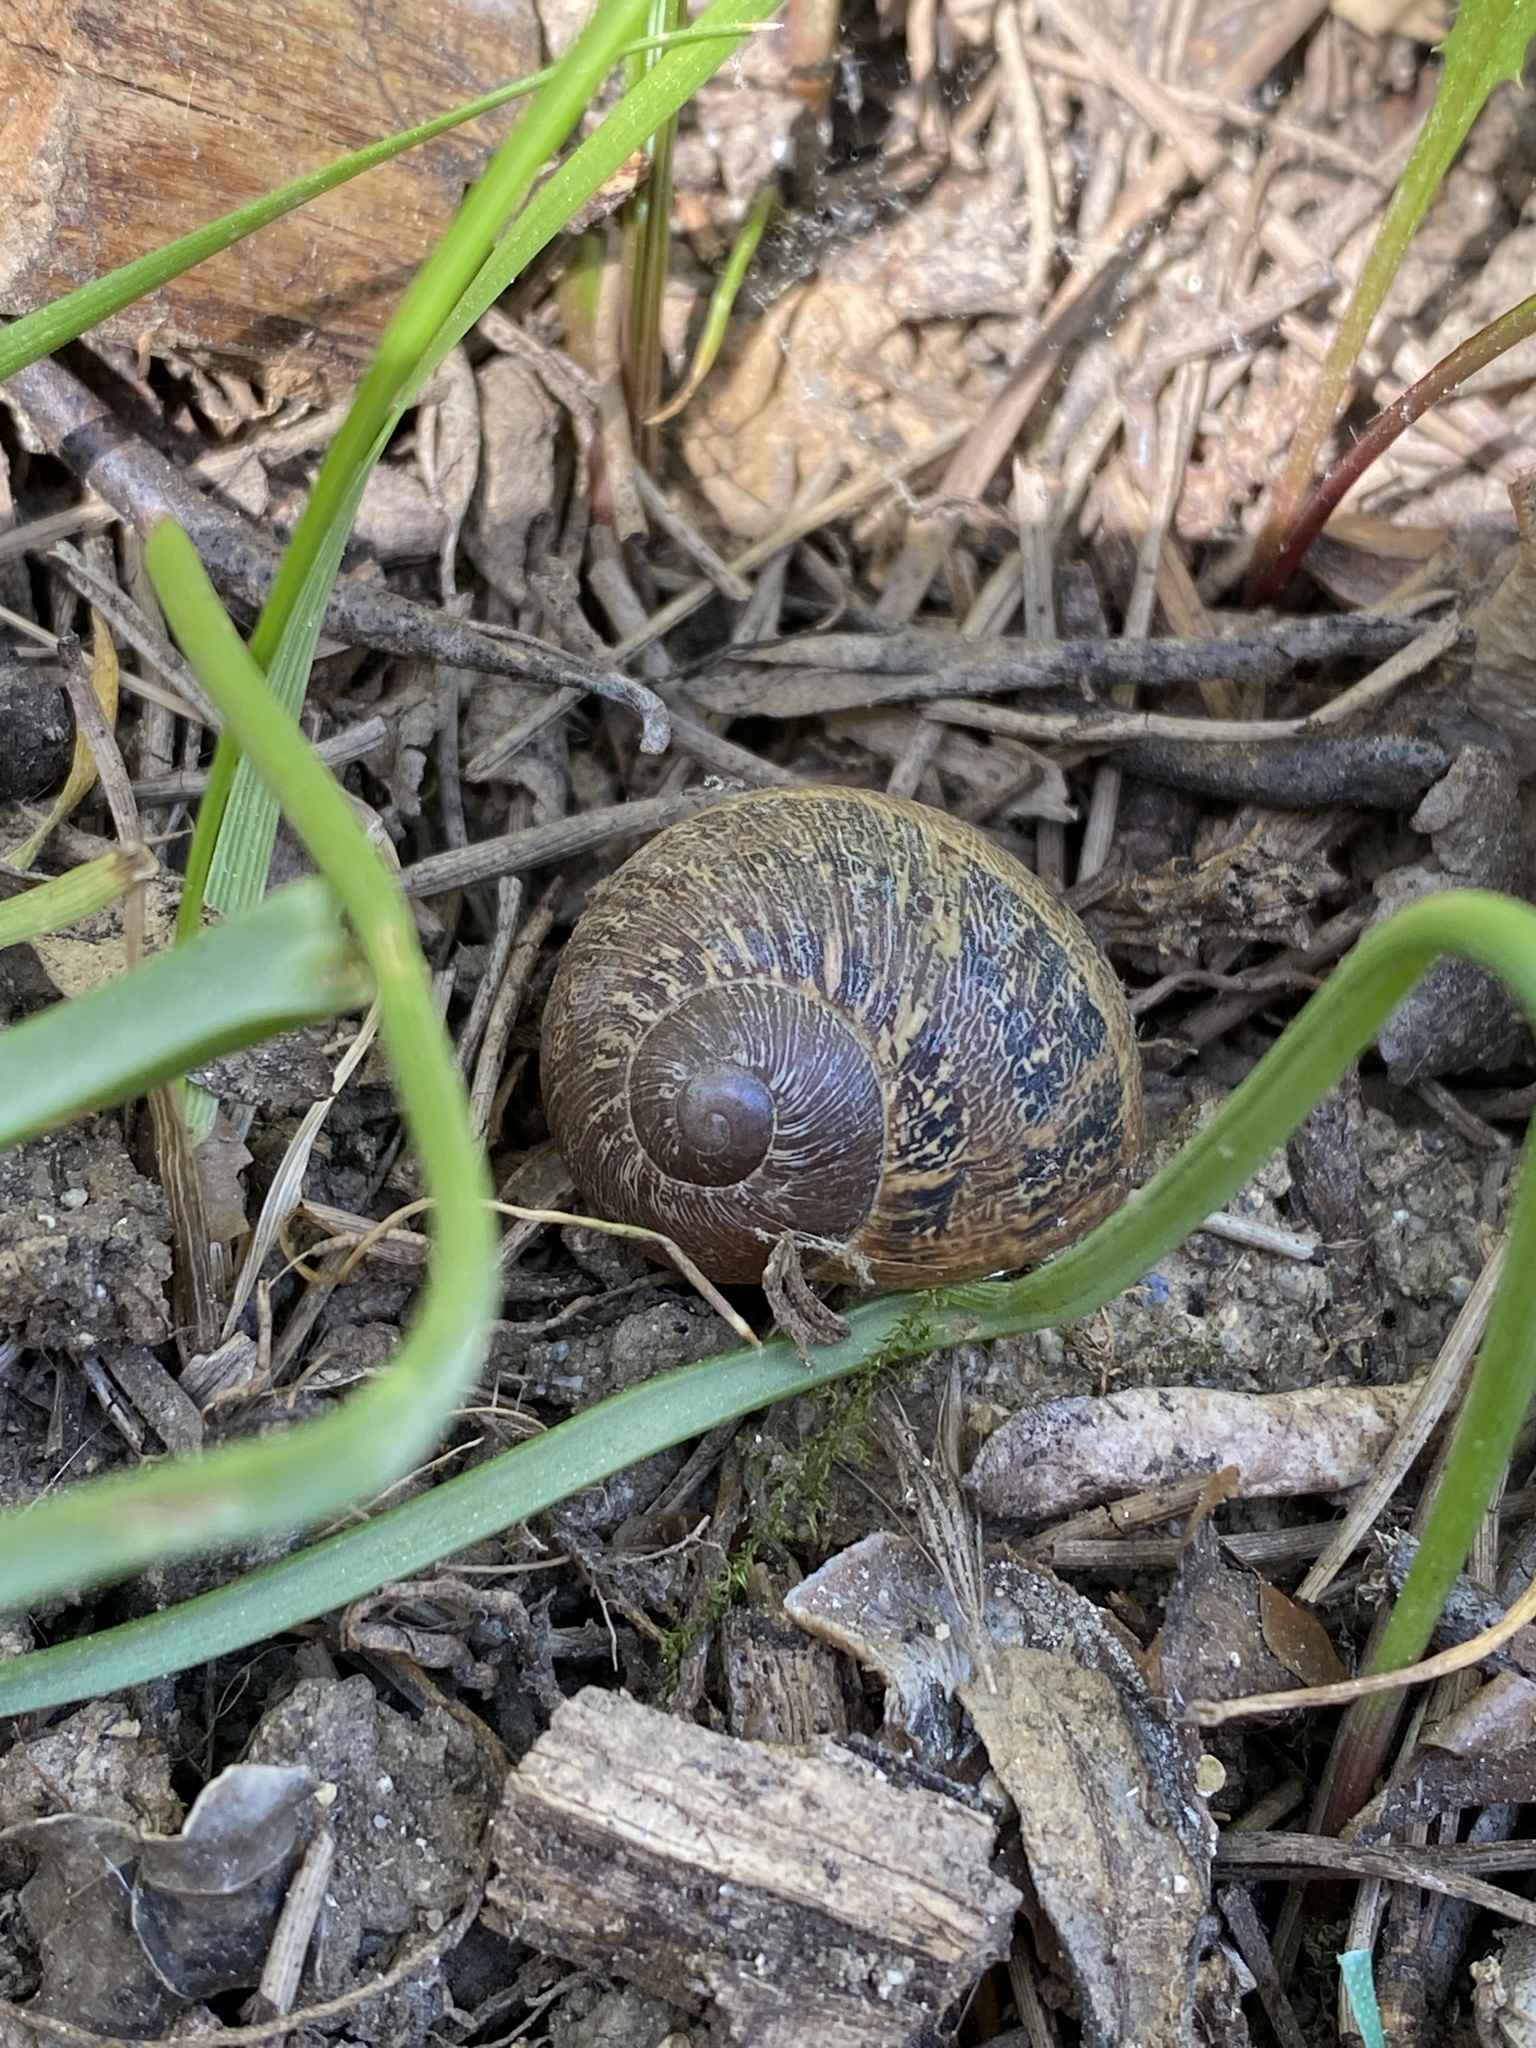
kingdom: Animalia
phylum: Mollusca
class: Gastropoda
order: Stylommatophora
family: Helicidae
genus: Cornu
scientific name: Cornu aspersum
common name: Brown garden snail
